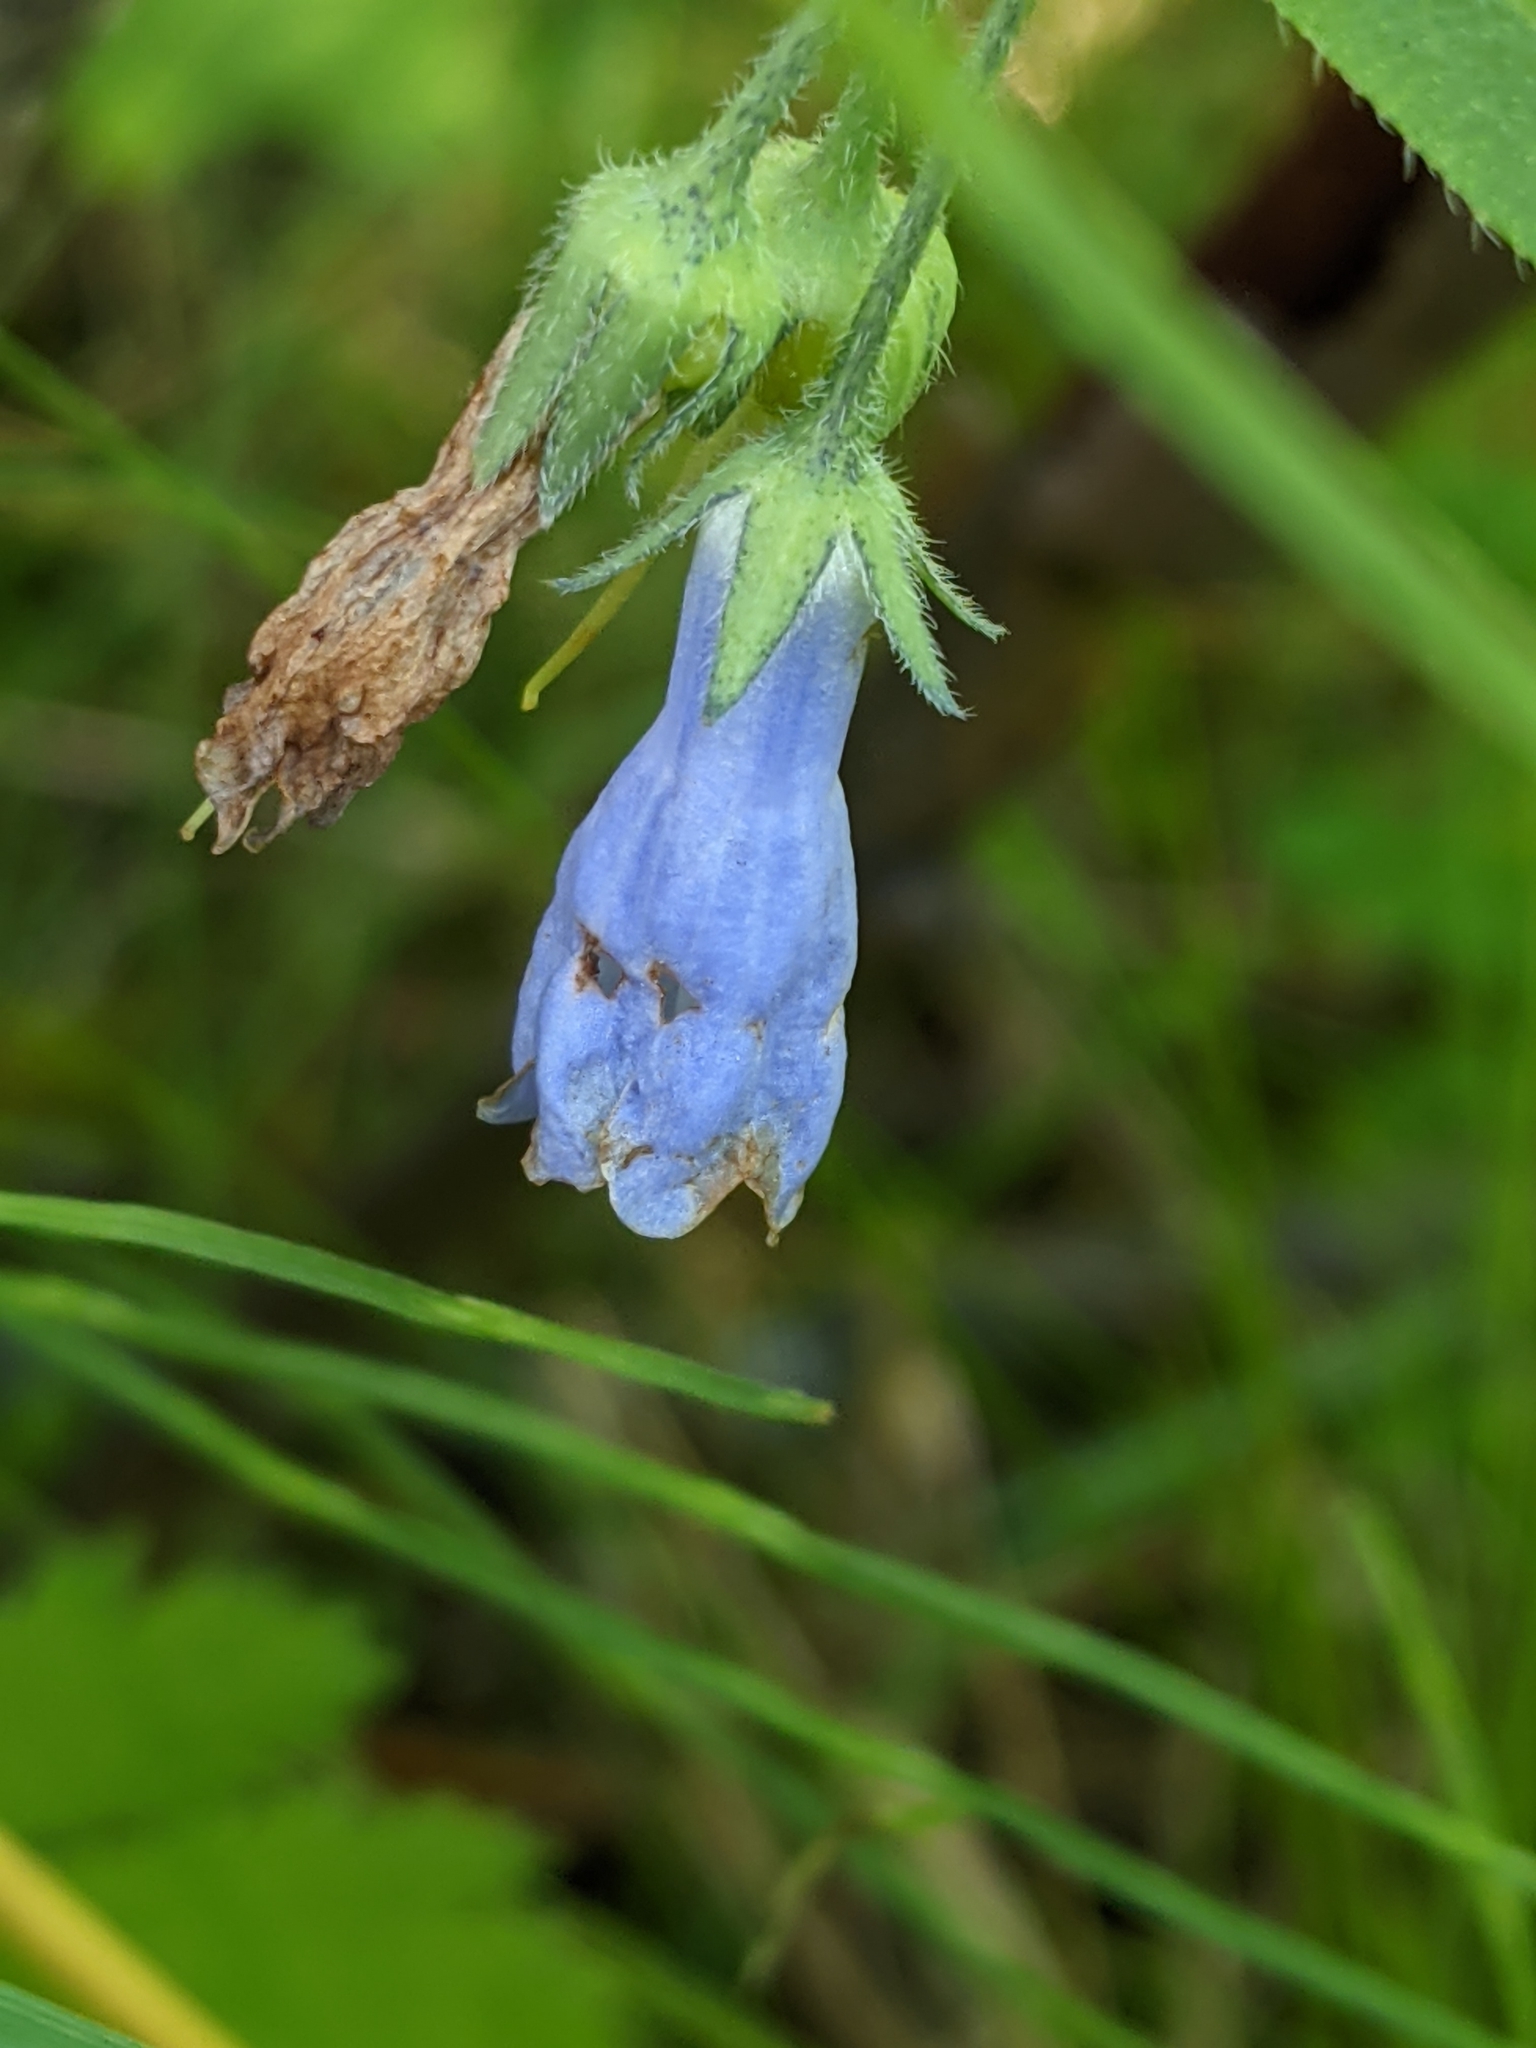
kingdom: Plantae
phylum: Tracheophyta
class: Magnoliopsida
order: Boraginales
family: Boraginaceae
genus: Mertensia
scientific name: Mertensia paniculata
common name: Panicled bluebells
